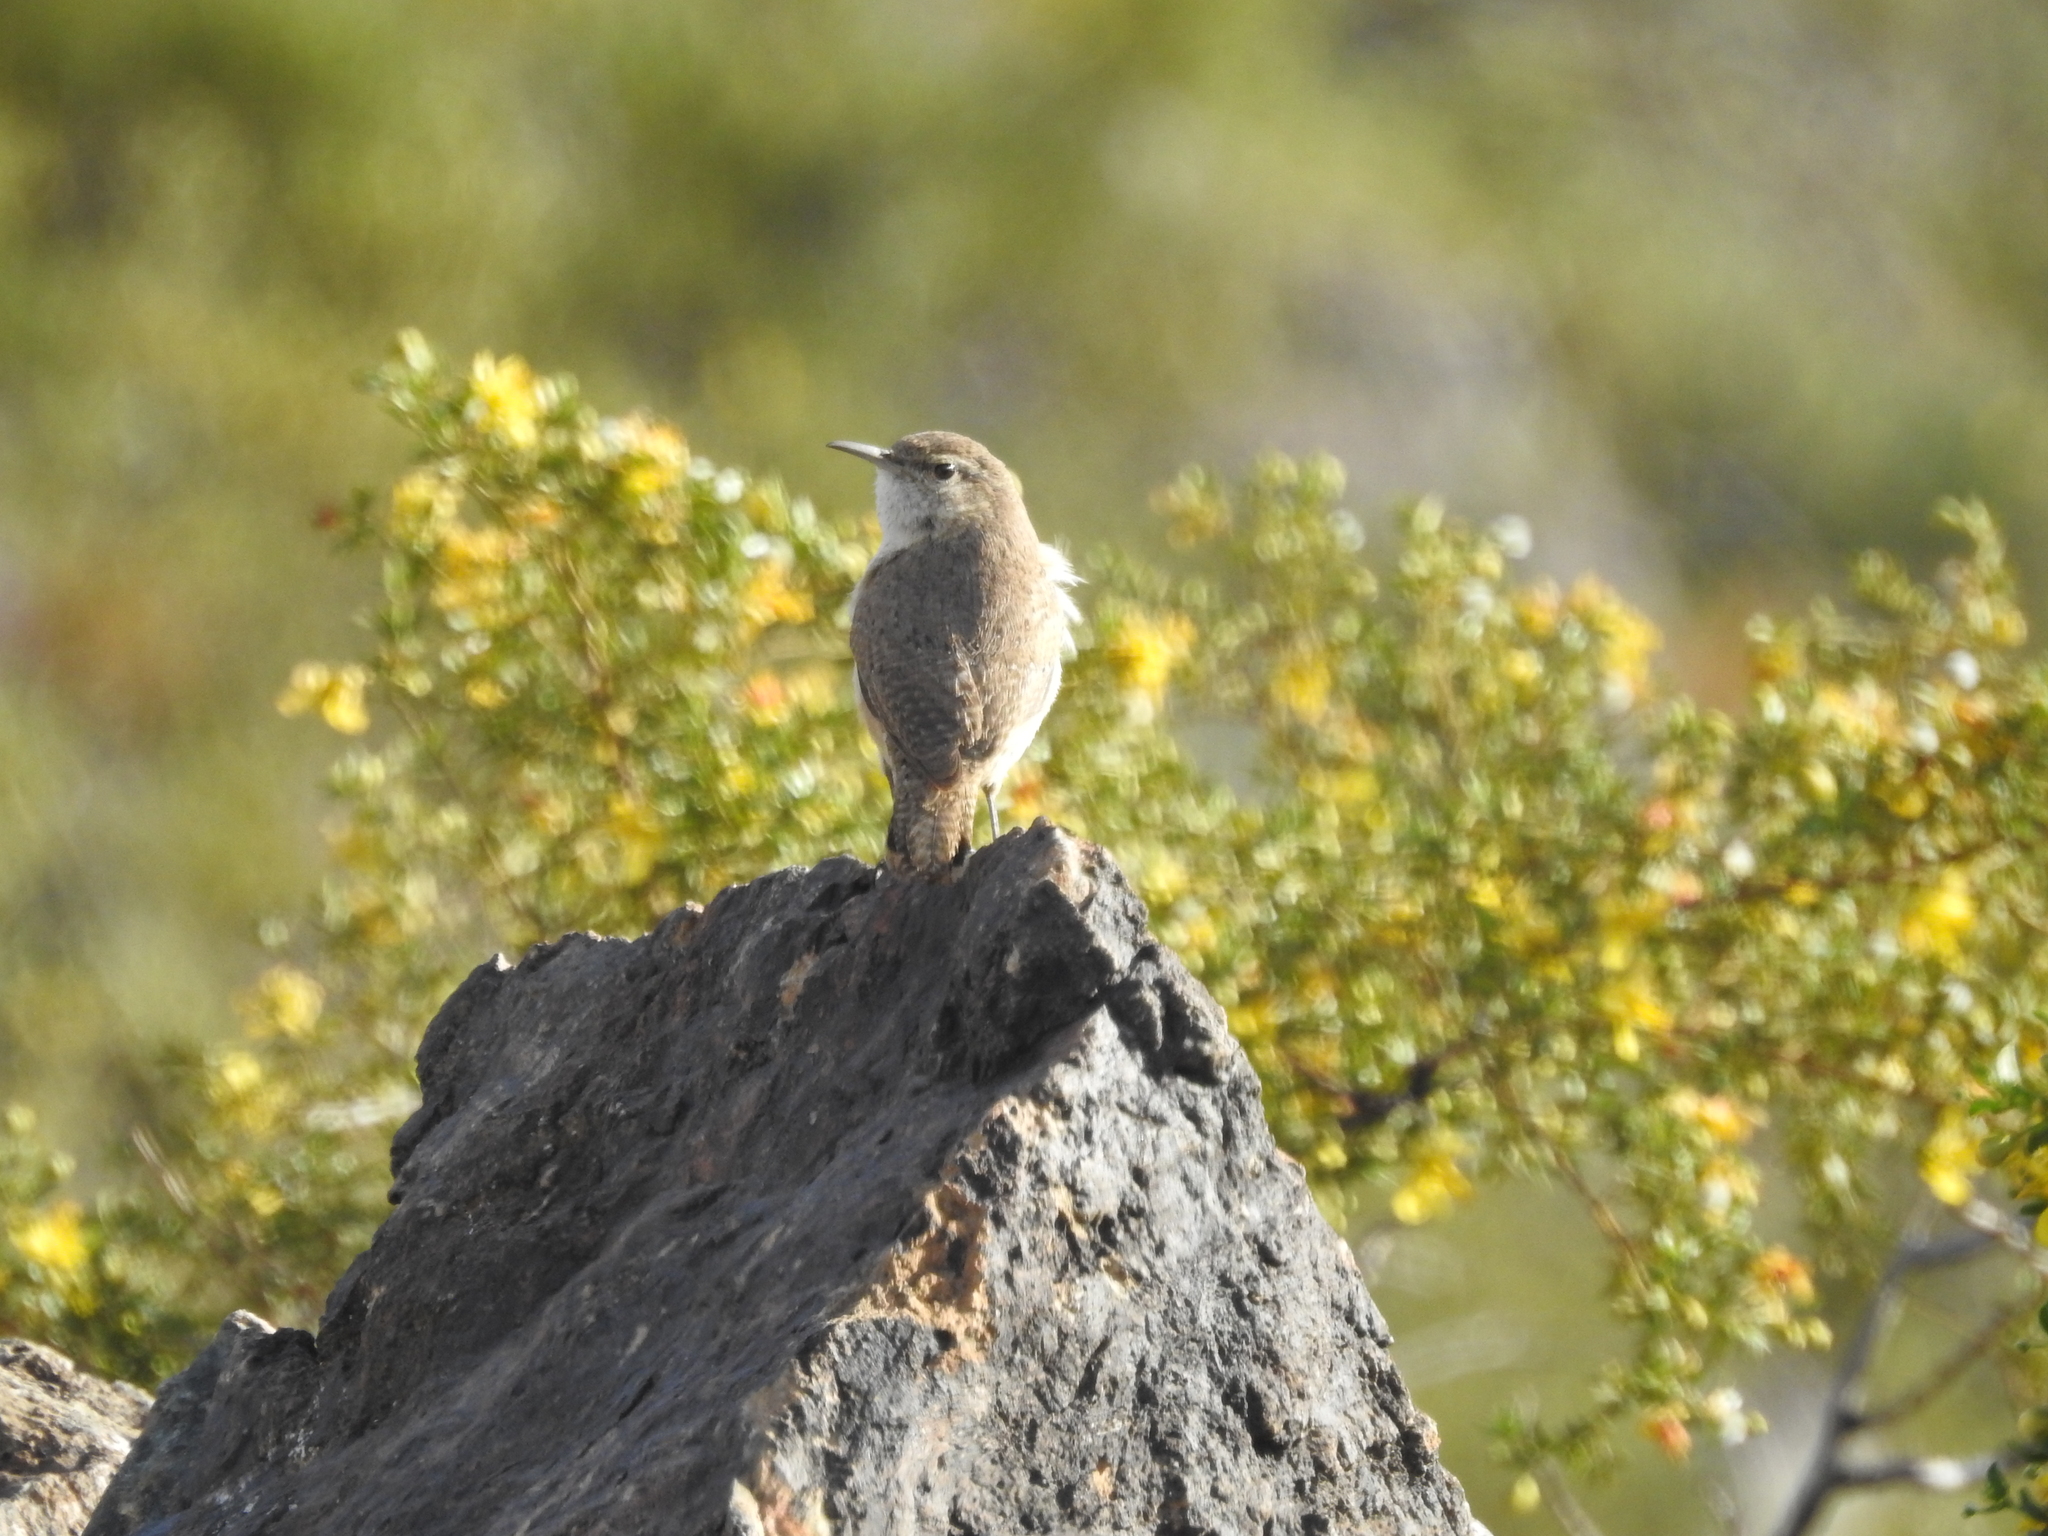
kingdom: Animalia
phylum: Chordata
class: Aves
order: Passeriformes
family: Troglodytidae
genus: Salpinctes
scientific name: Salpinctes obsoletus
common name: Rock wren
